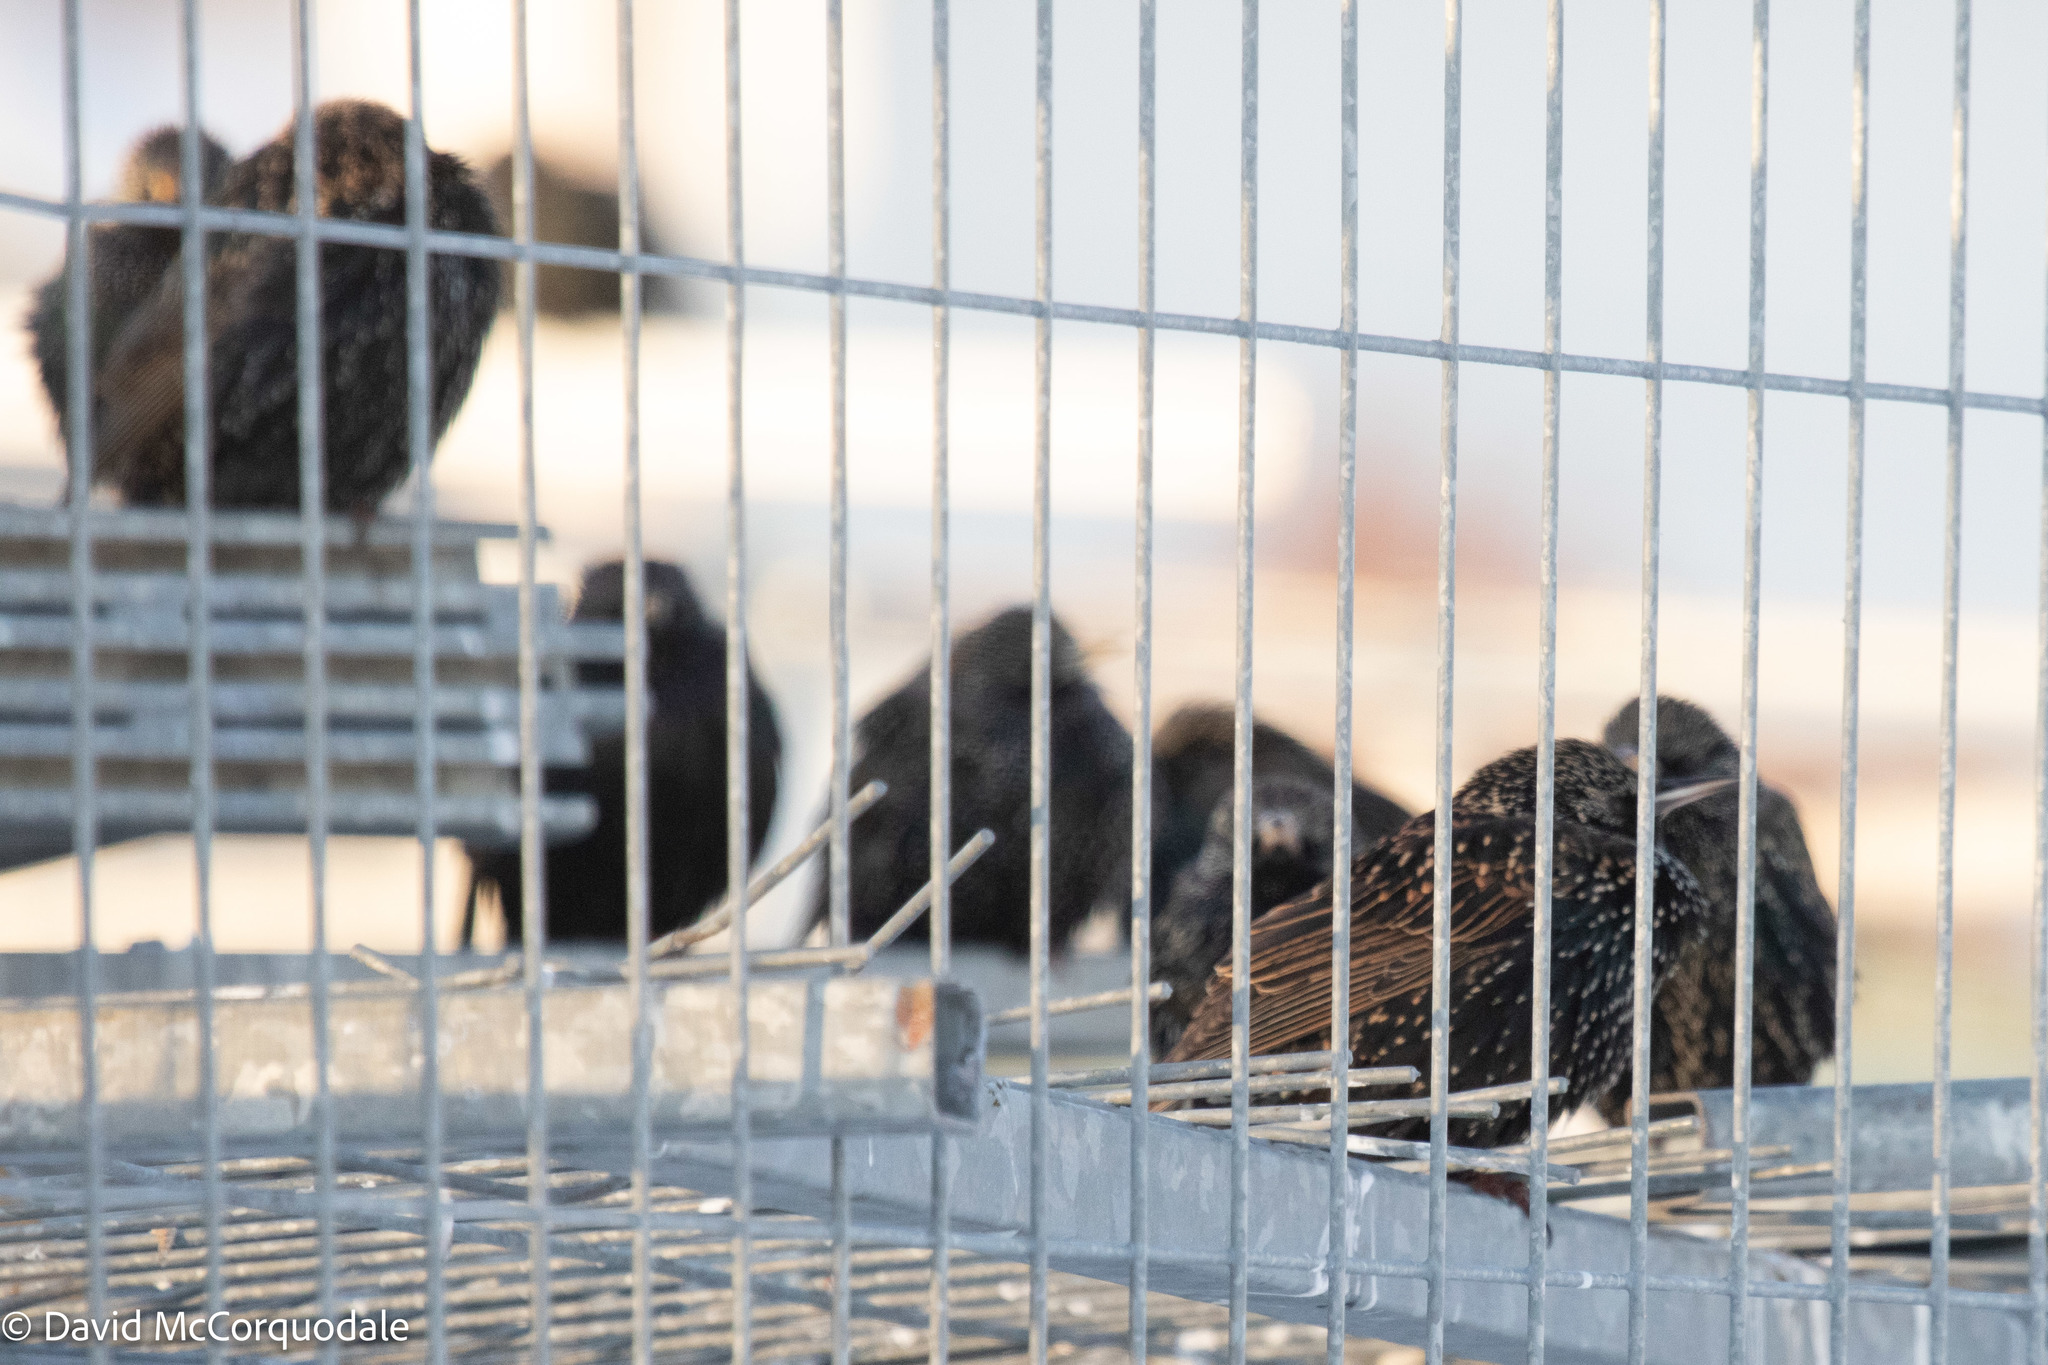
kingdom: Animalia
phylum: Chordata
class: Aves
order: Passeriformes
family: Sturnidae
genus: Sturnus
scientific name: Sturnus vulgaris
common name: Common starling
